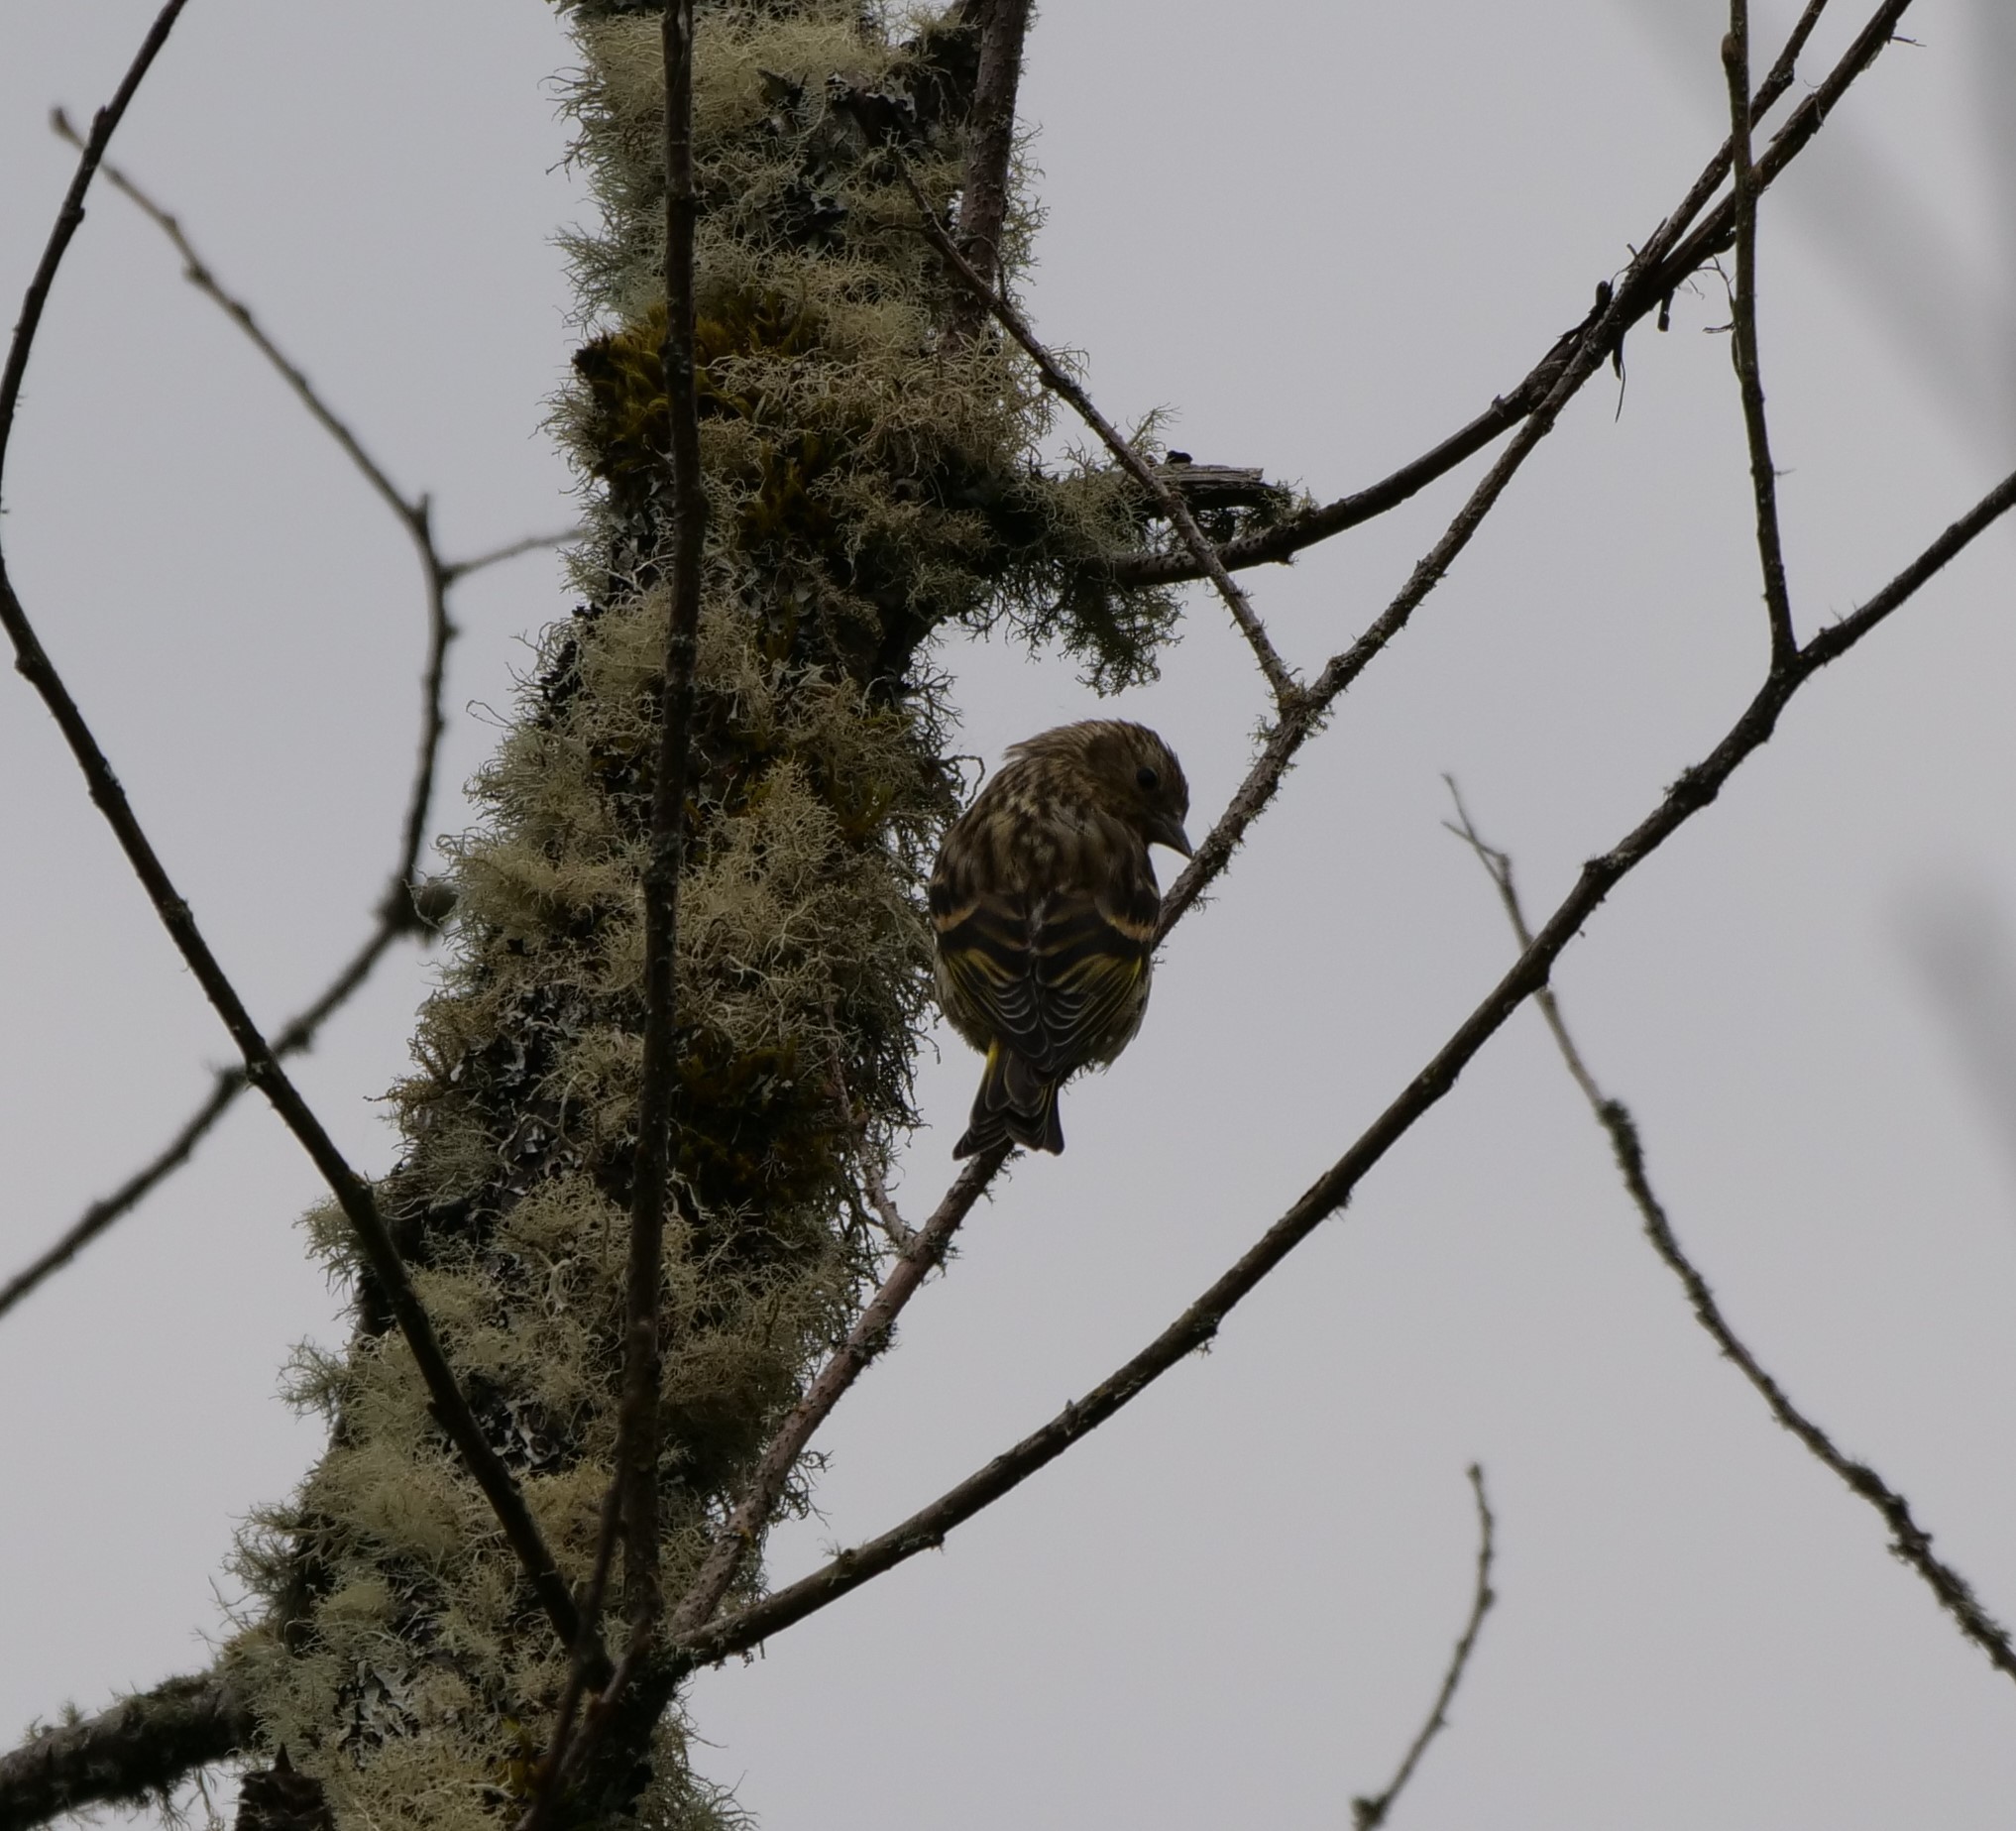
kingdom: Animalia
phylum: Chordata
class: Aves
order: Passeriformes
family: Fringillidae
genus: Spinus
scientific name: Spinus pinus
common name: Pine siskin
